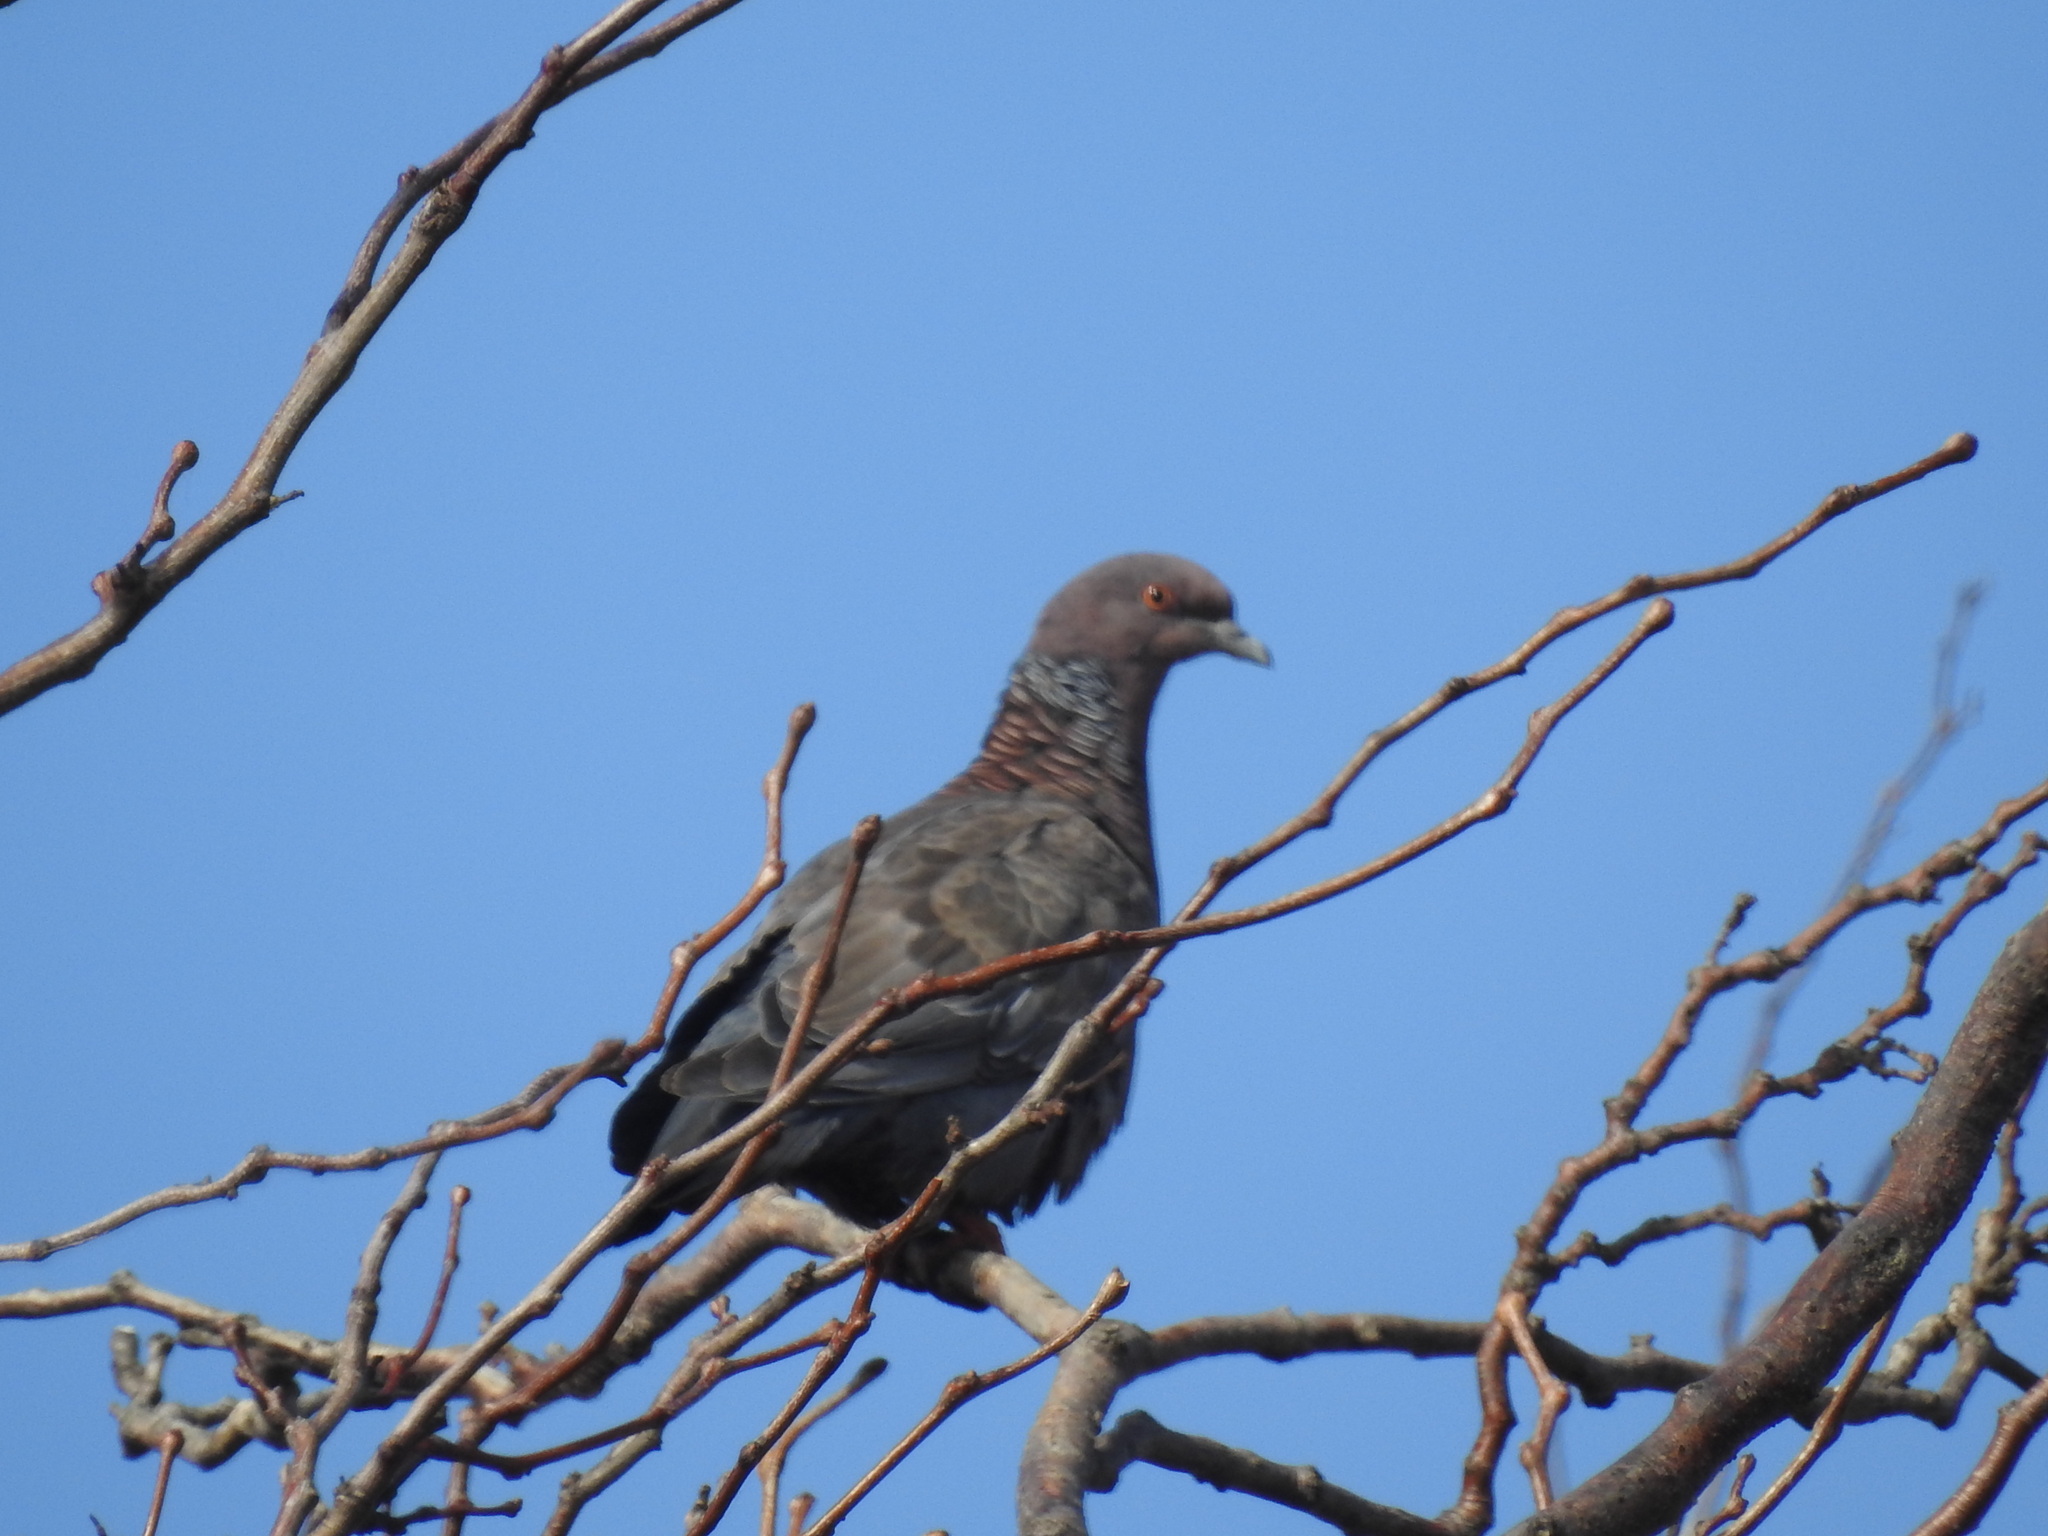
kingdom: Animalia
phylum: Chordata
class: Aves
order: Columbiformes
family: Columbidae
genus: Patagioenas
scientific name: Patagioenas picazuro
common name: Picazuro pigeon
